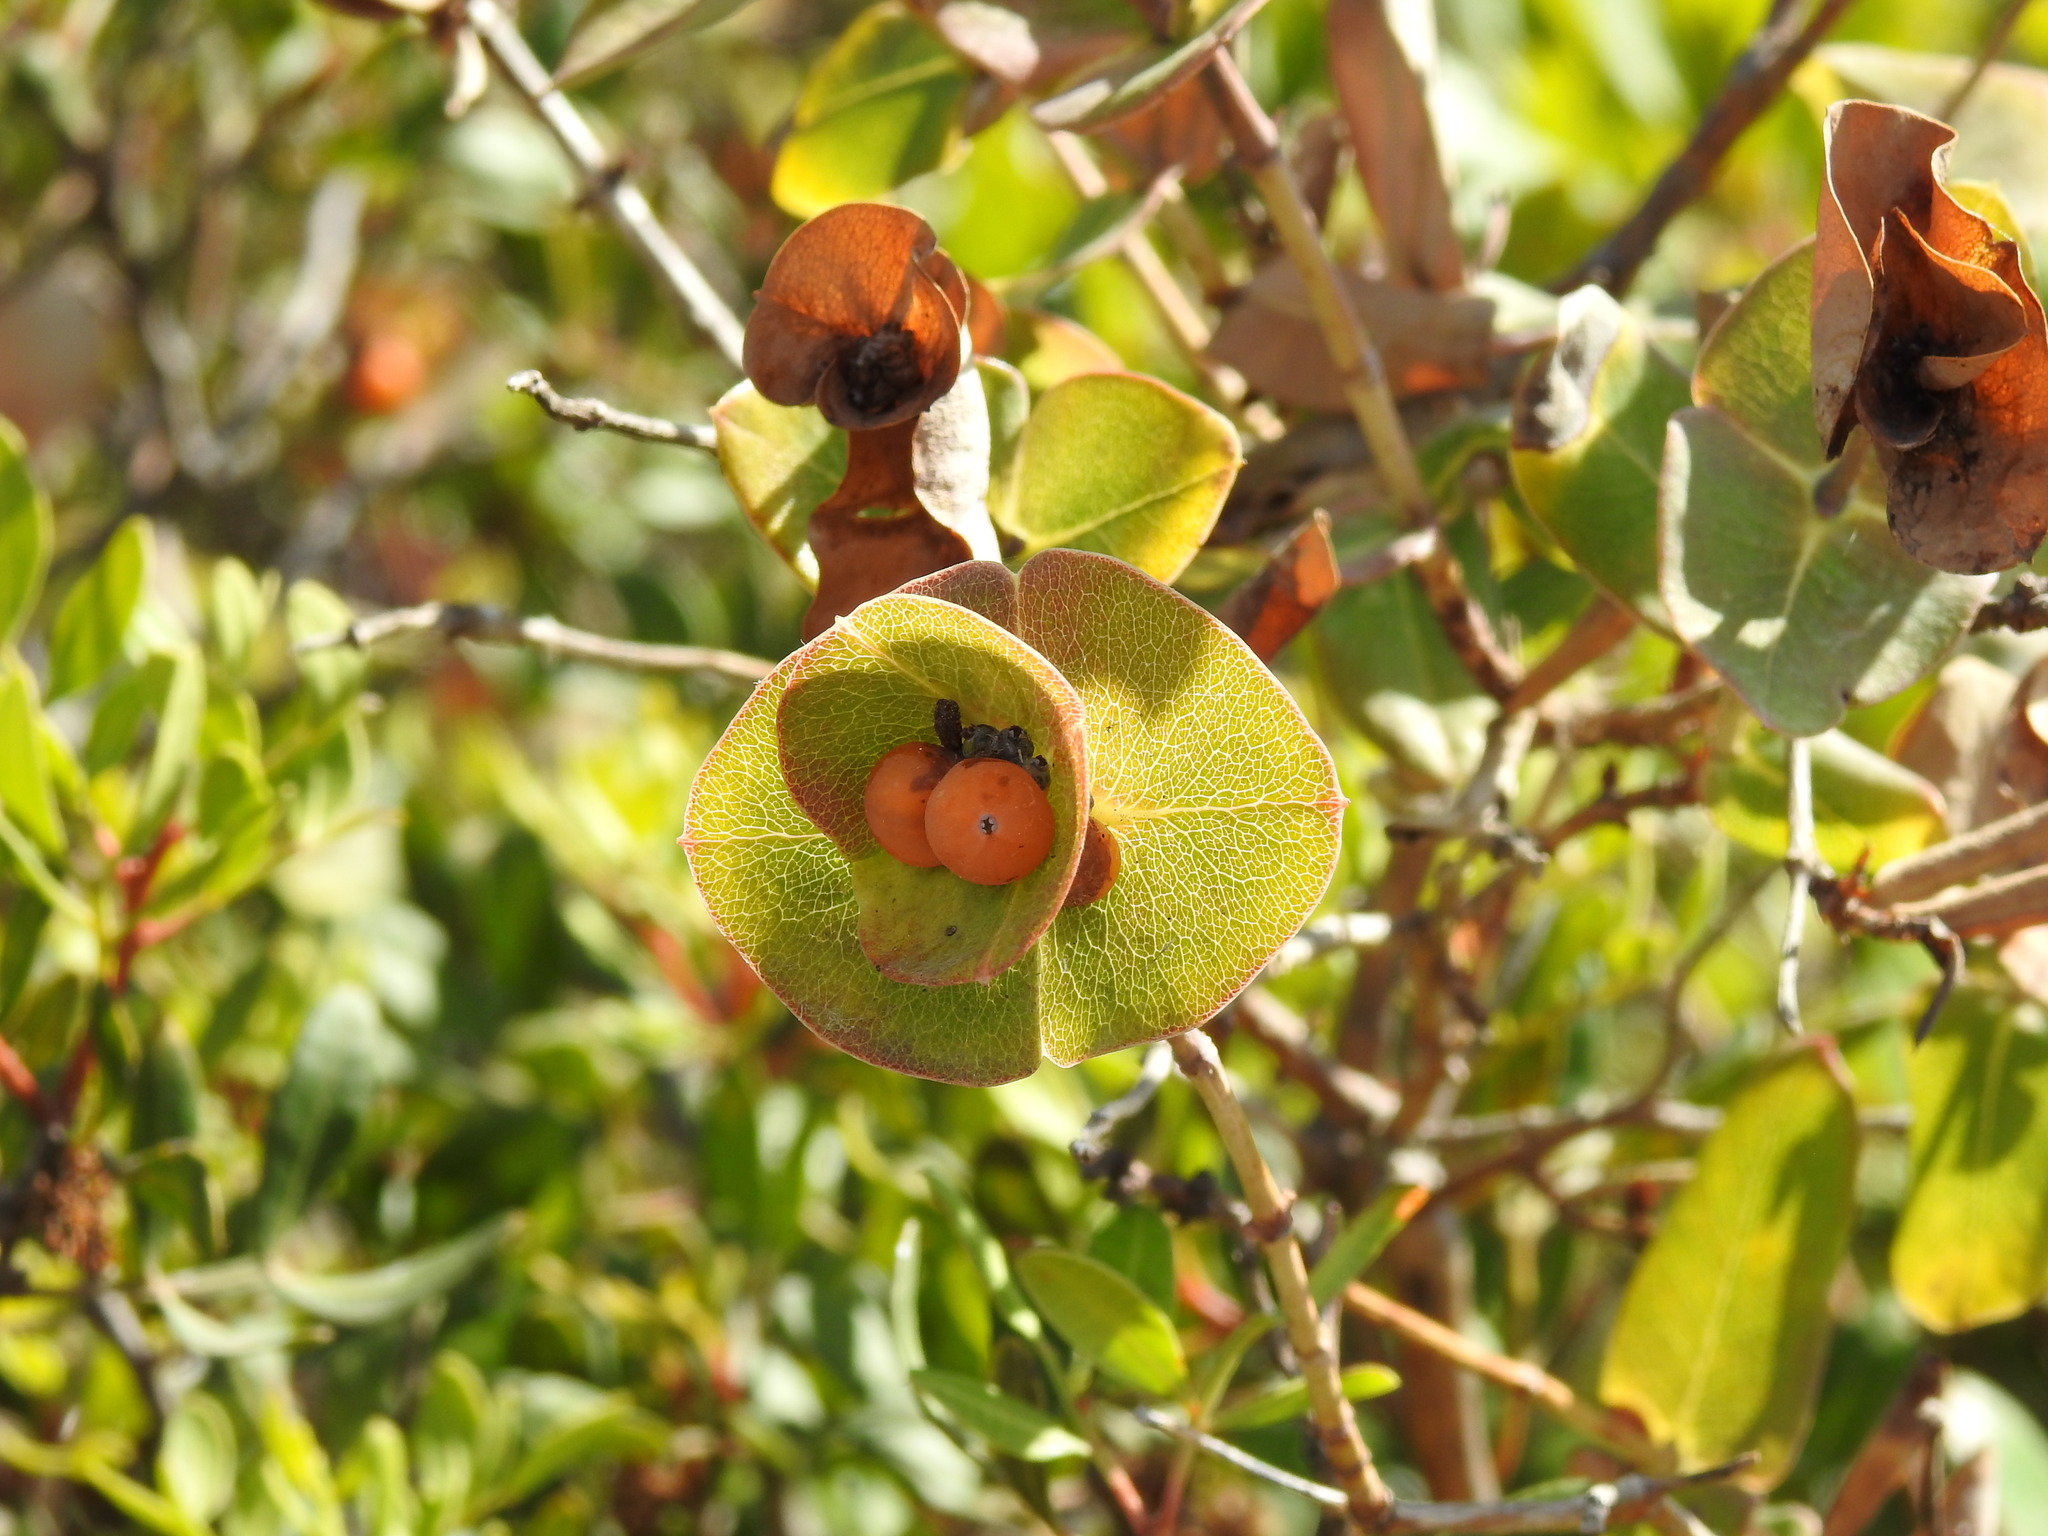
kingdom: Plantae
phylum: Tracheophyta
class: Magnoliopsida
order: Dipsacales
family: Caprifoliaceae
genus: Lonicera
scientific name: Lonicera implexa
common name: Minorca honeysuckle
